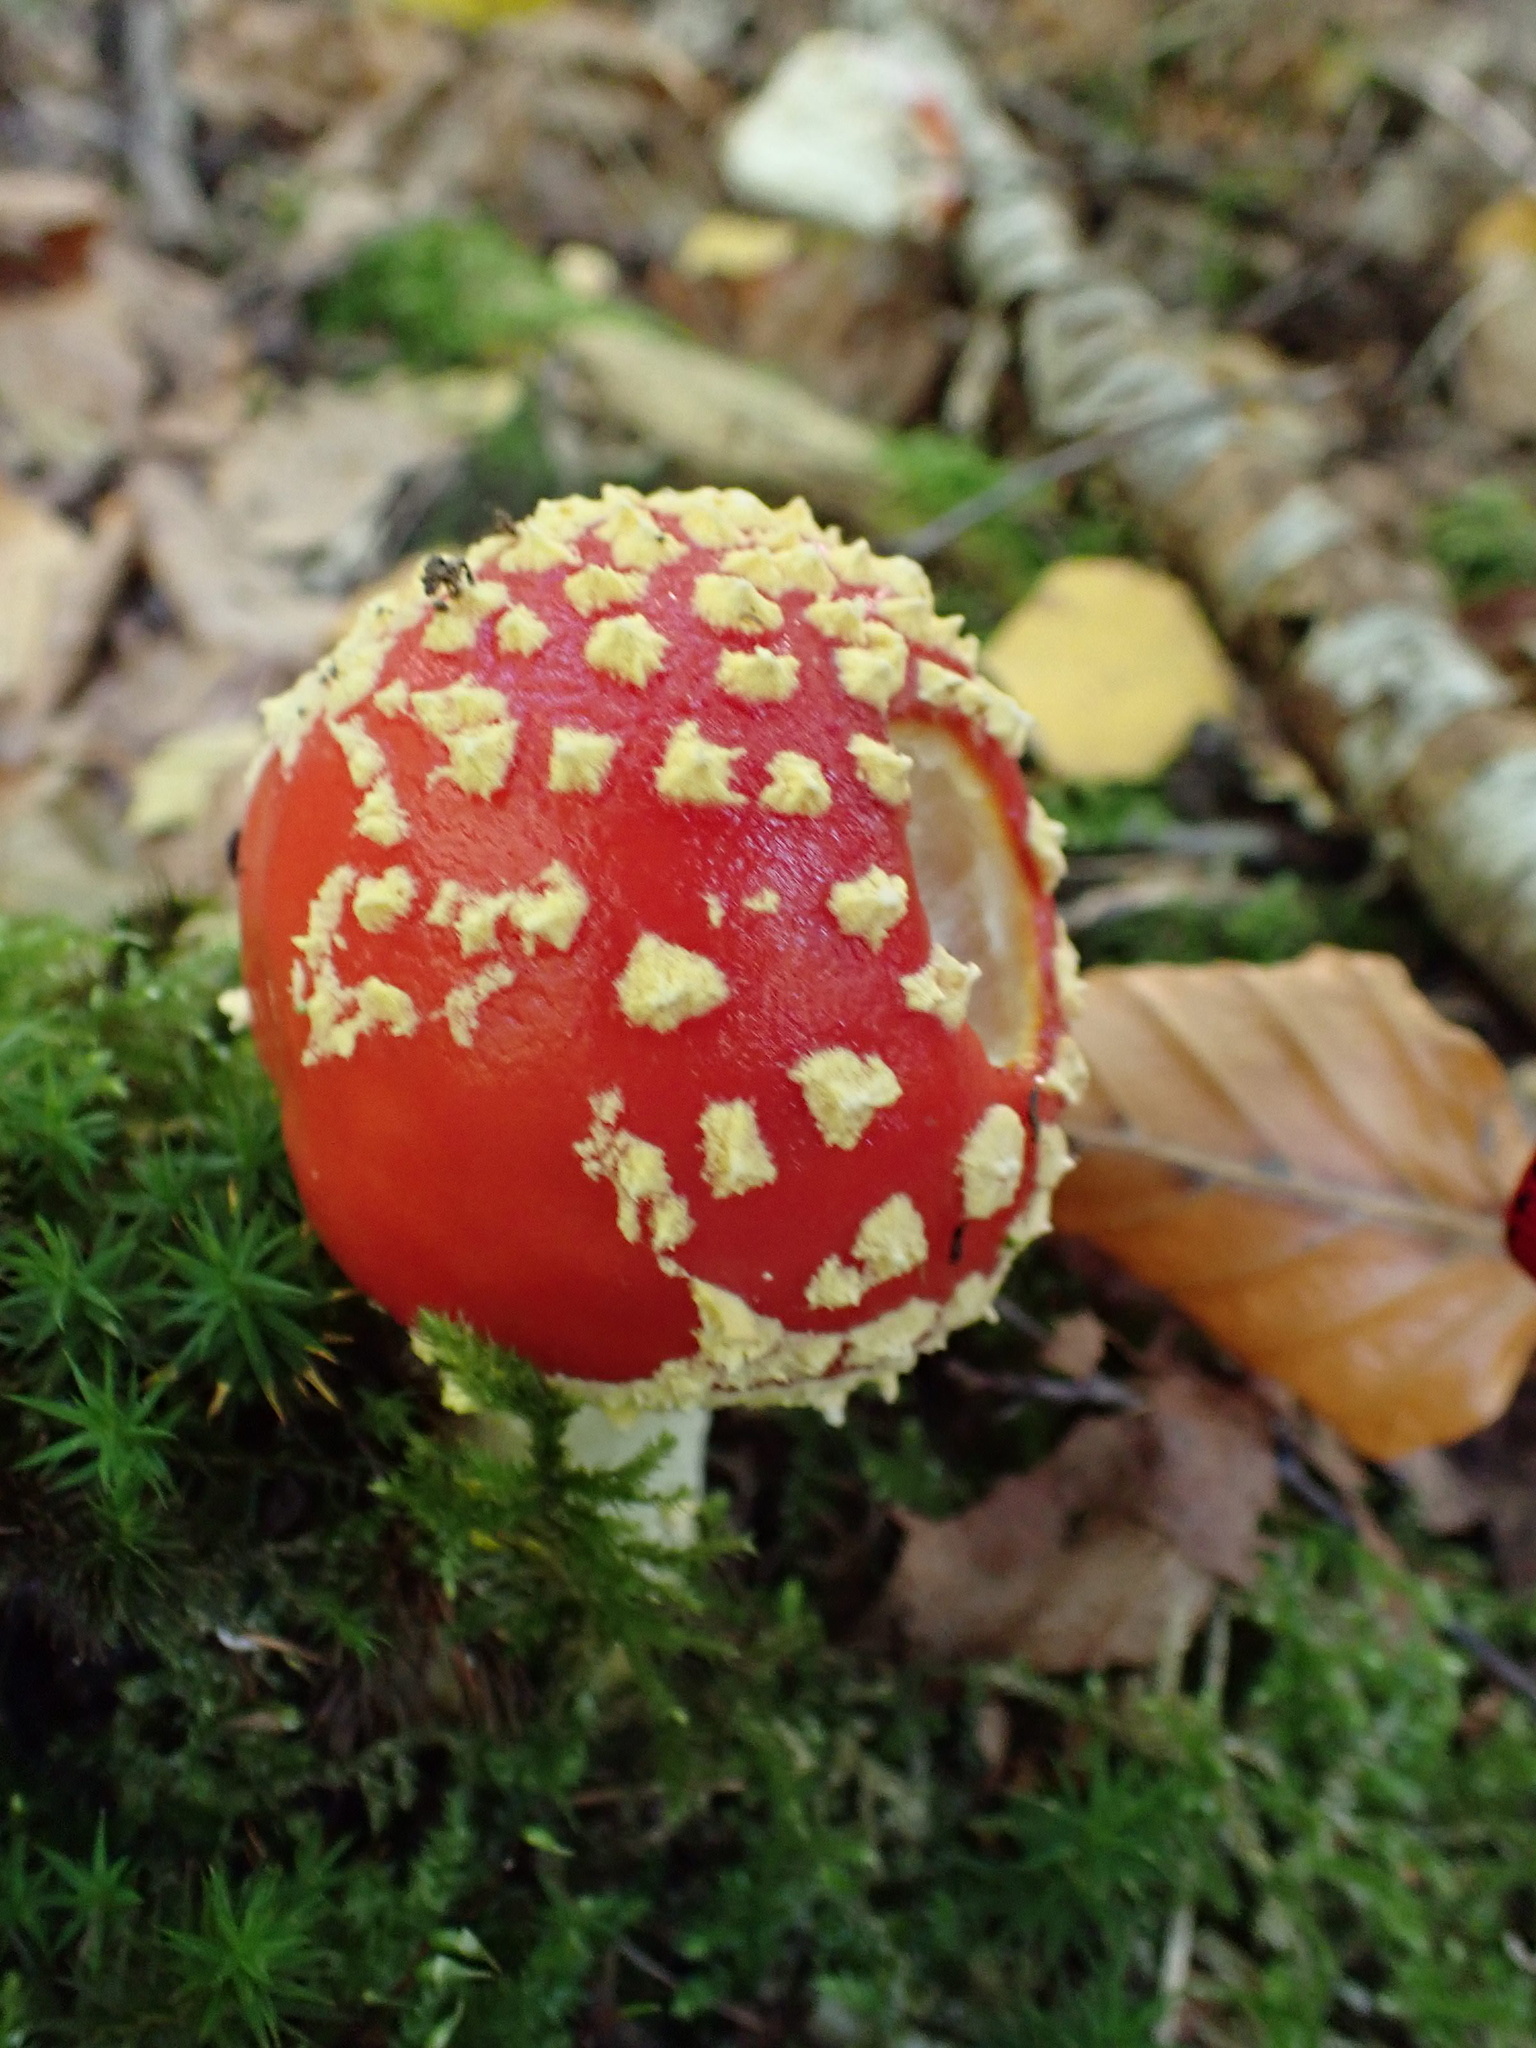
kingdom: Fungi
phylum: Basidiomycota
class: Agaricomycetes
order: Agaricales
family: Amanitaceae
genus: Amanita
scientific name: Amanita muscaria
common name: Fly agaric
